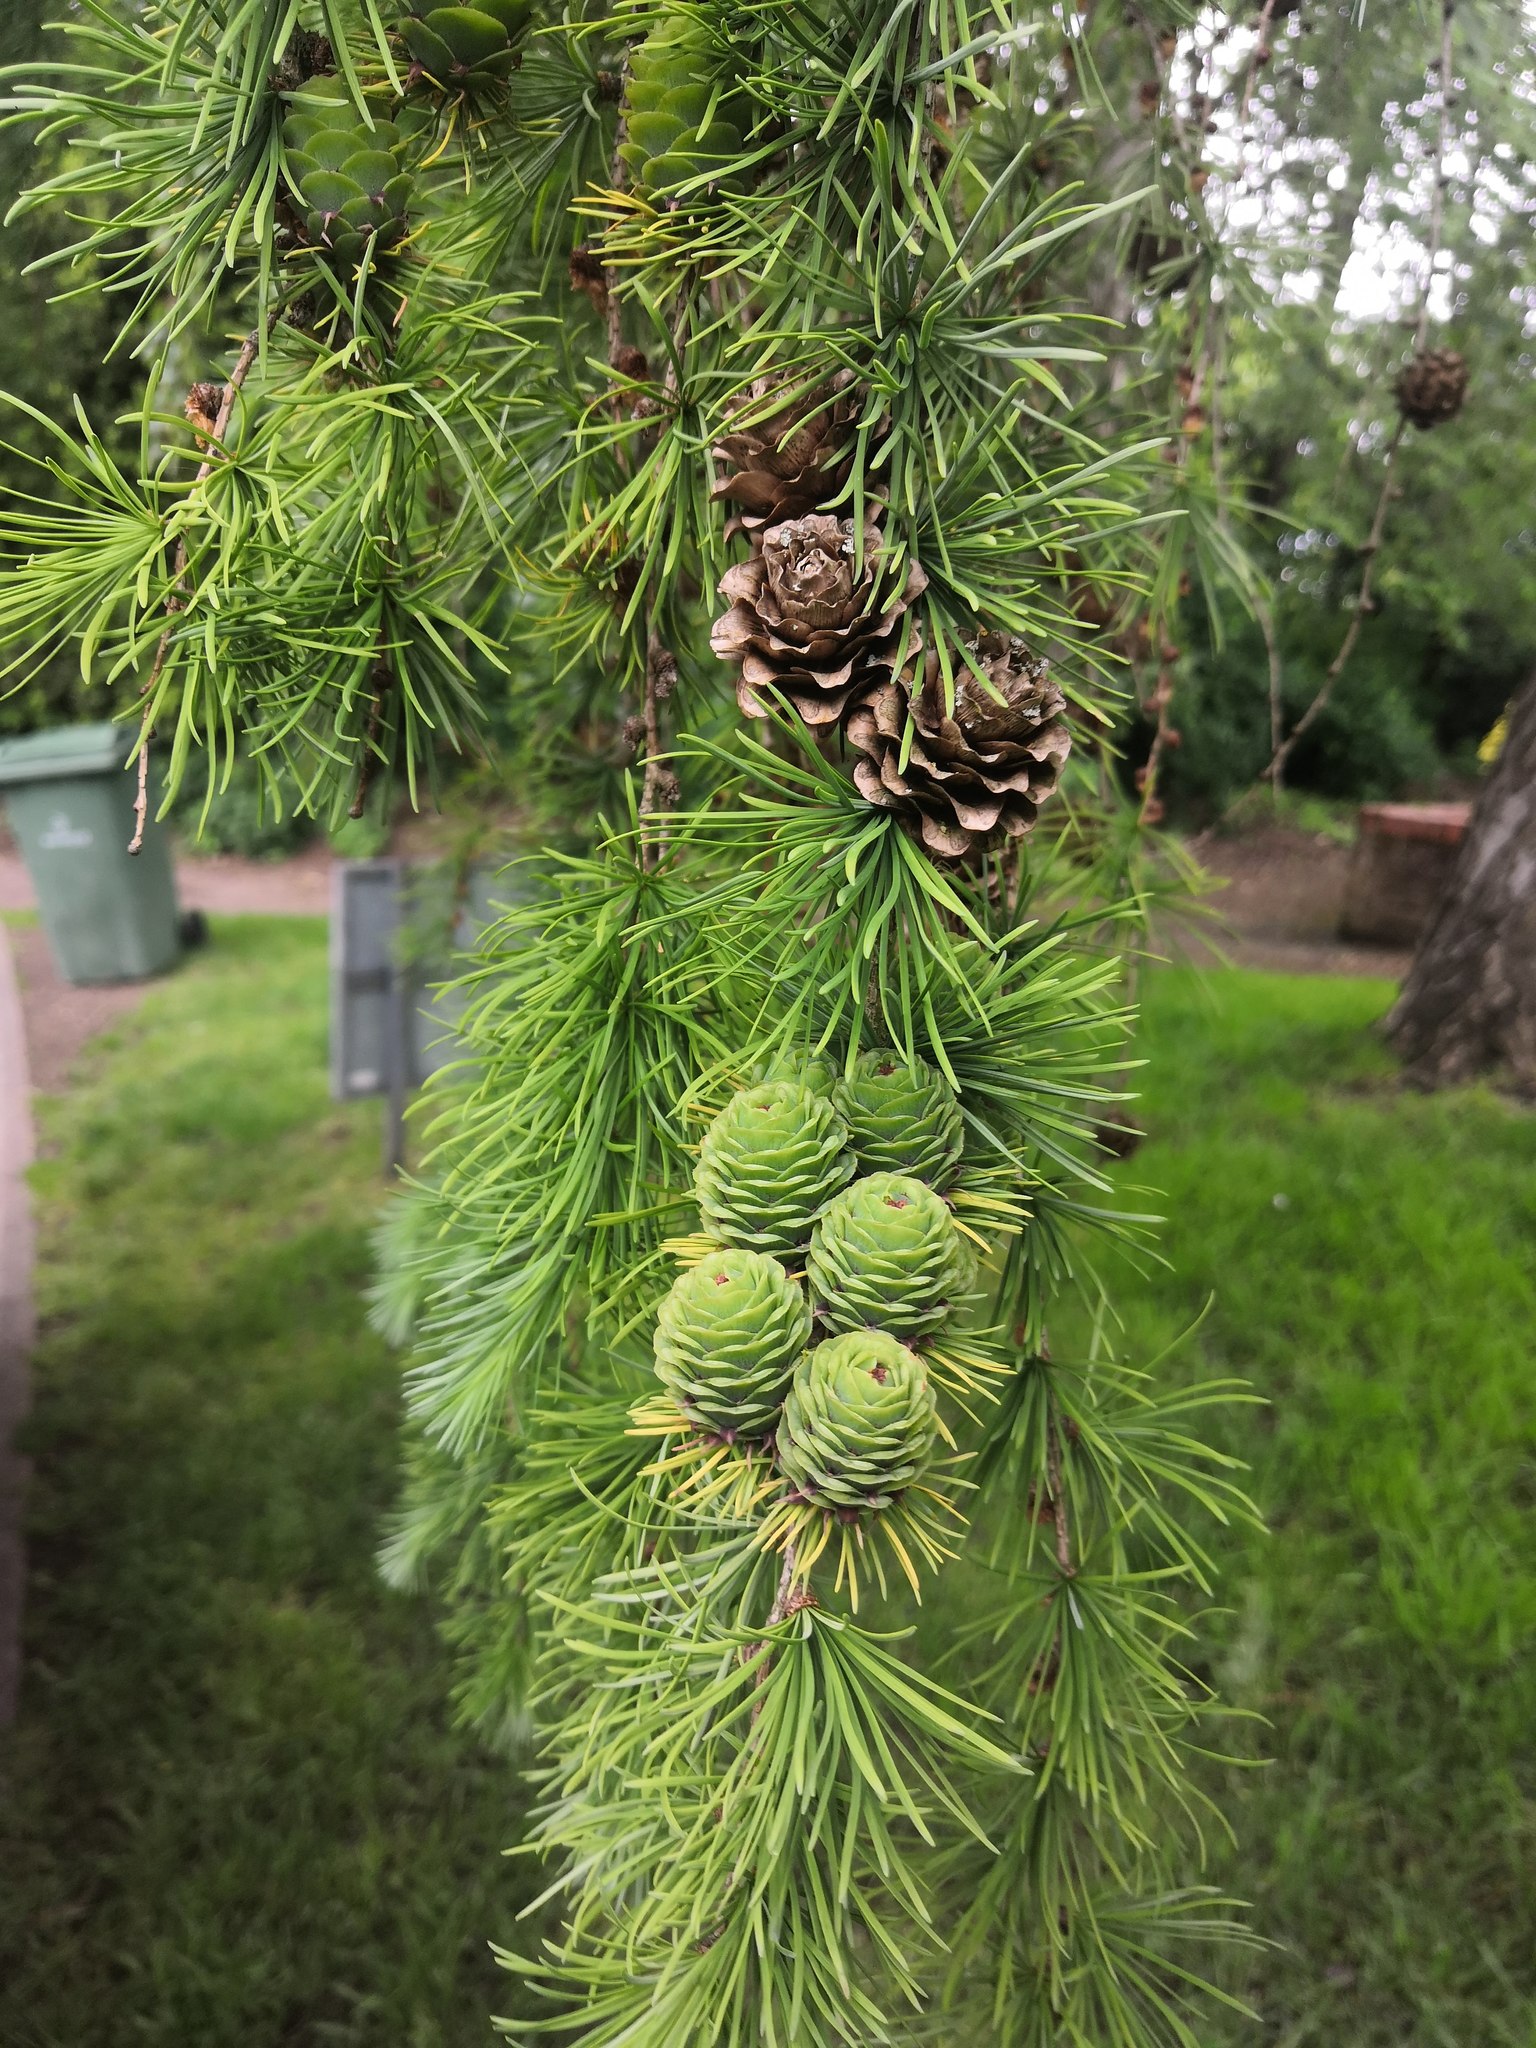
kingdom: Plantae
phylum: Tracheophyta
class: Pinopsida
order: Pinales
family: Pinaceae
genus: Larix
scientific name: Larix kaempferi
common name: Japanese larch
